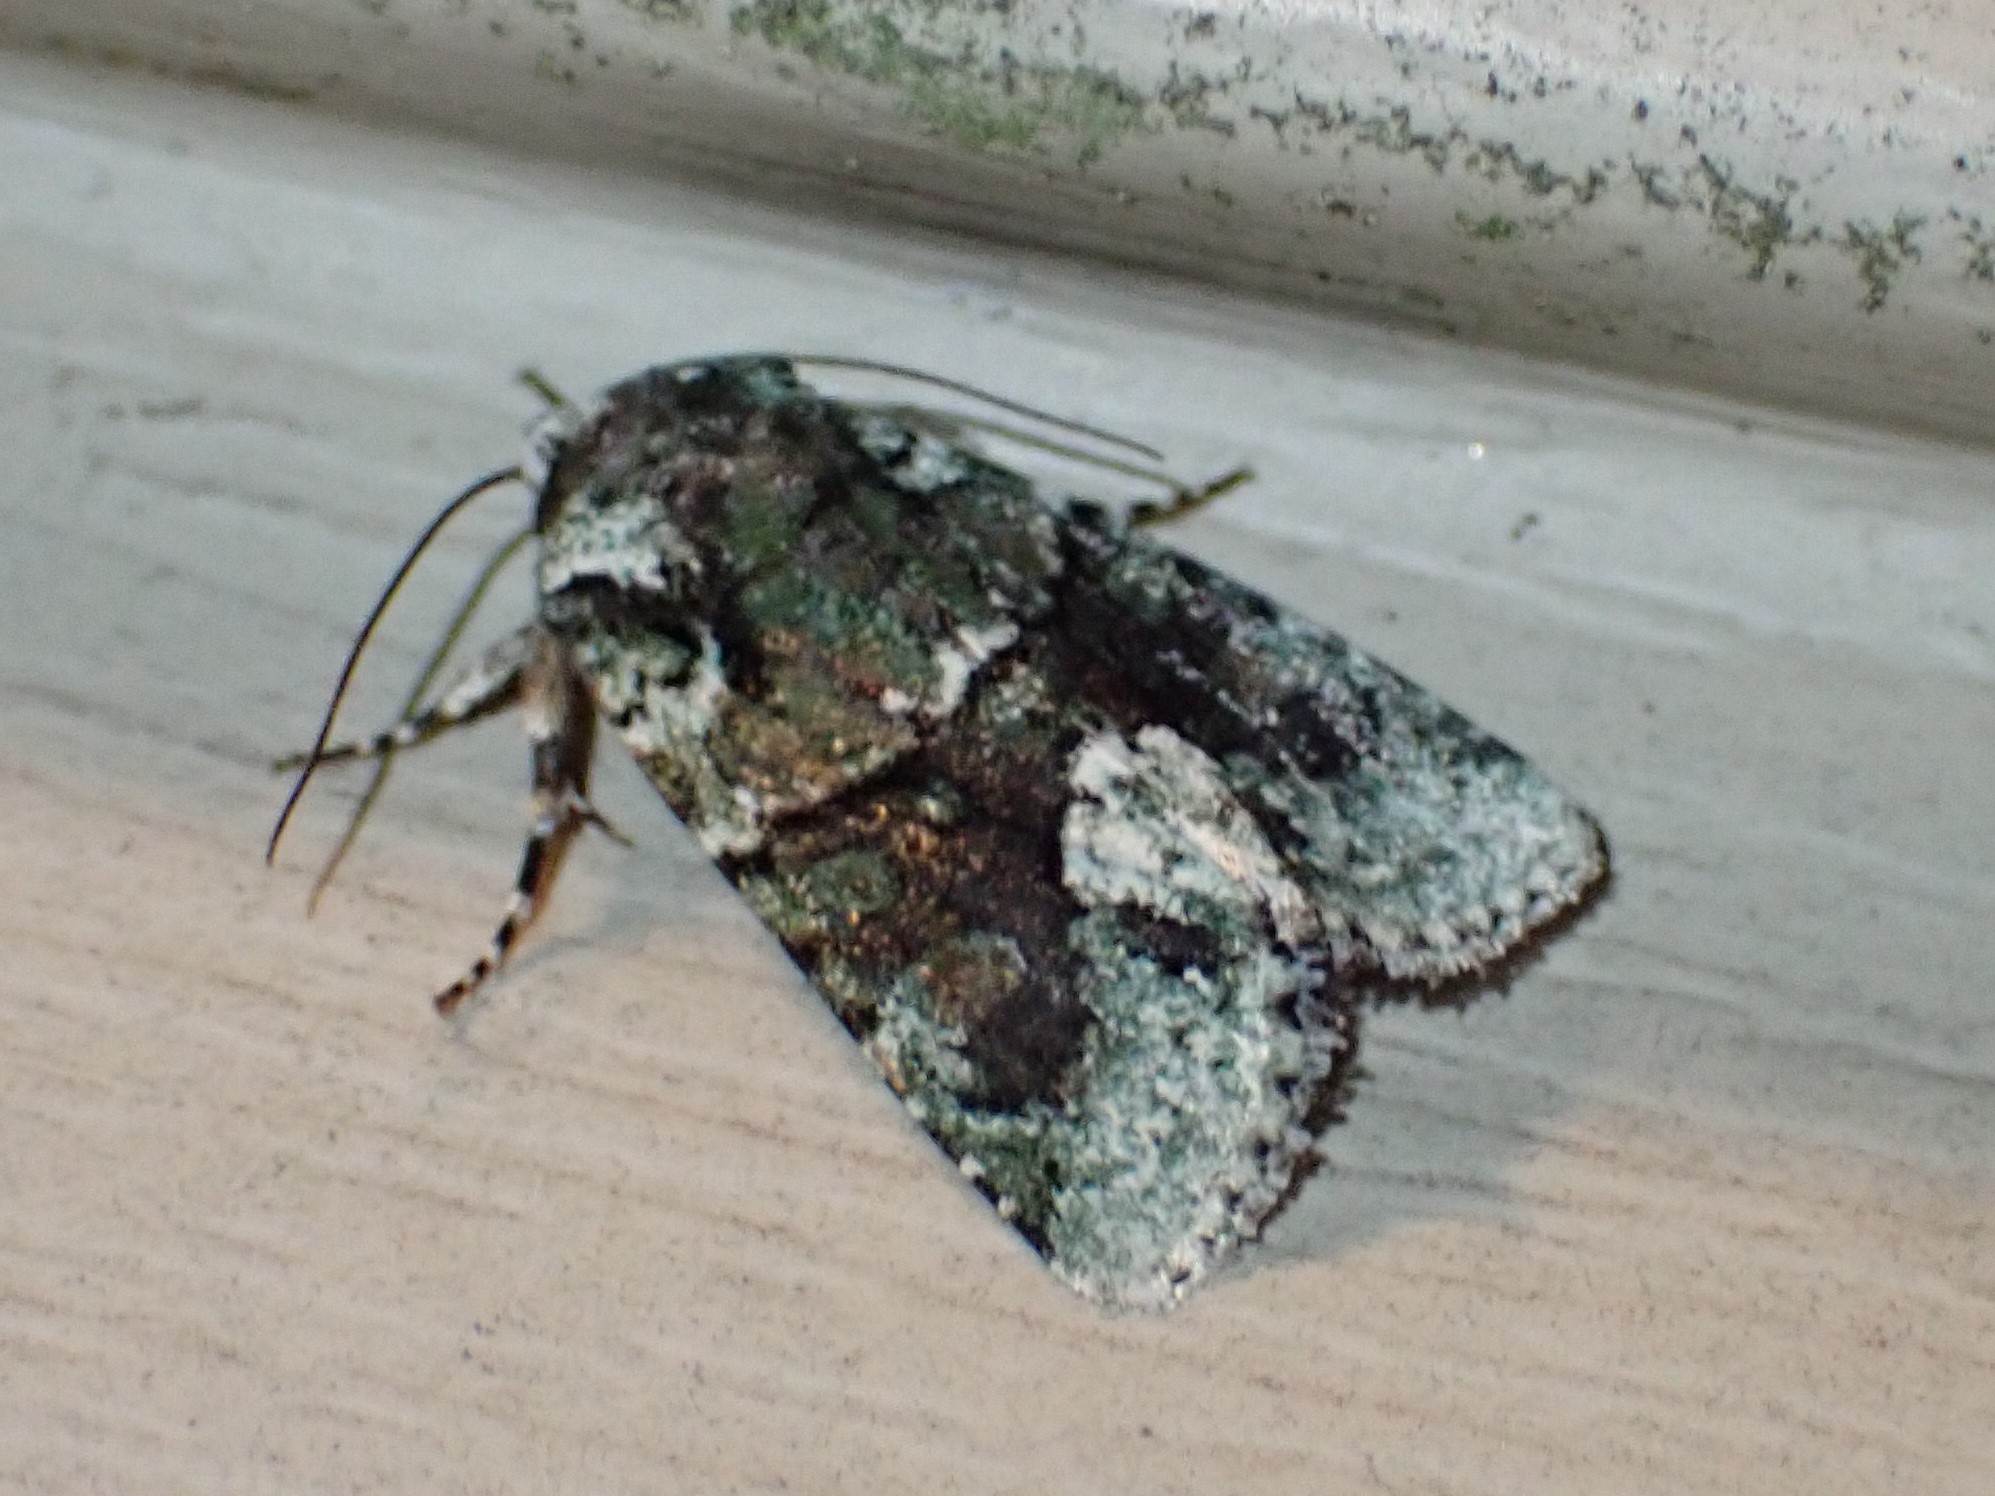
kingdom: Animalia
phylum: Arthropoda
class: Insecta
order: Lepidoptera
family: Noctuidae
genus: Lacinipolia
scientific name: Lacinipolia explicata
